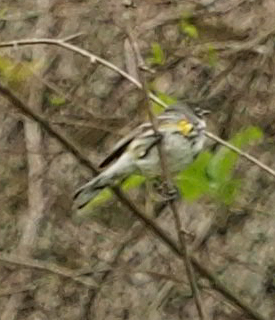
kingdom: Animalia
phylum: Chordata
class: Aves
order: Passeriformes
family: Parulidae
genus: Setophaga
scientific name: Setophaga coronata
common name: Myrtle warbler
